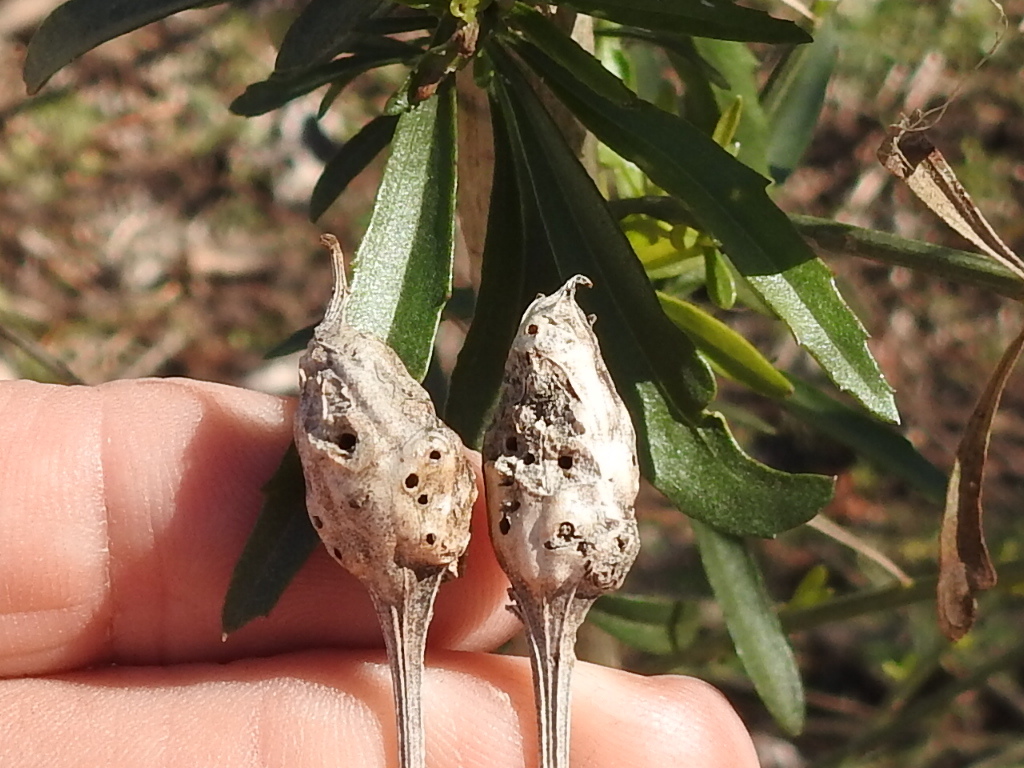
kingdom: Animalia
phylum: Arthropoda
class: Insecta
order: Diptera
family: Cecidomyiidae
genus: Neolasioptera
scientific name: Neolasioptera lathami
